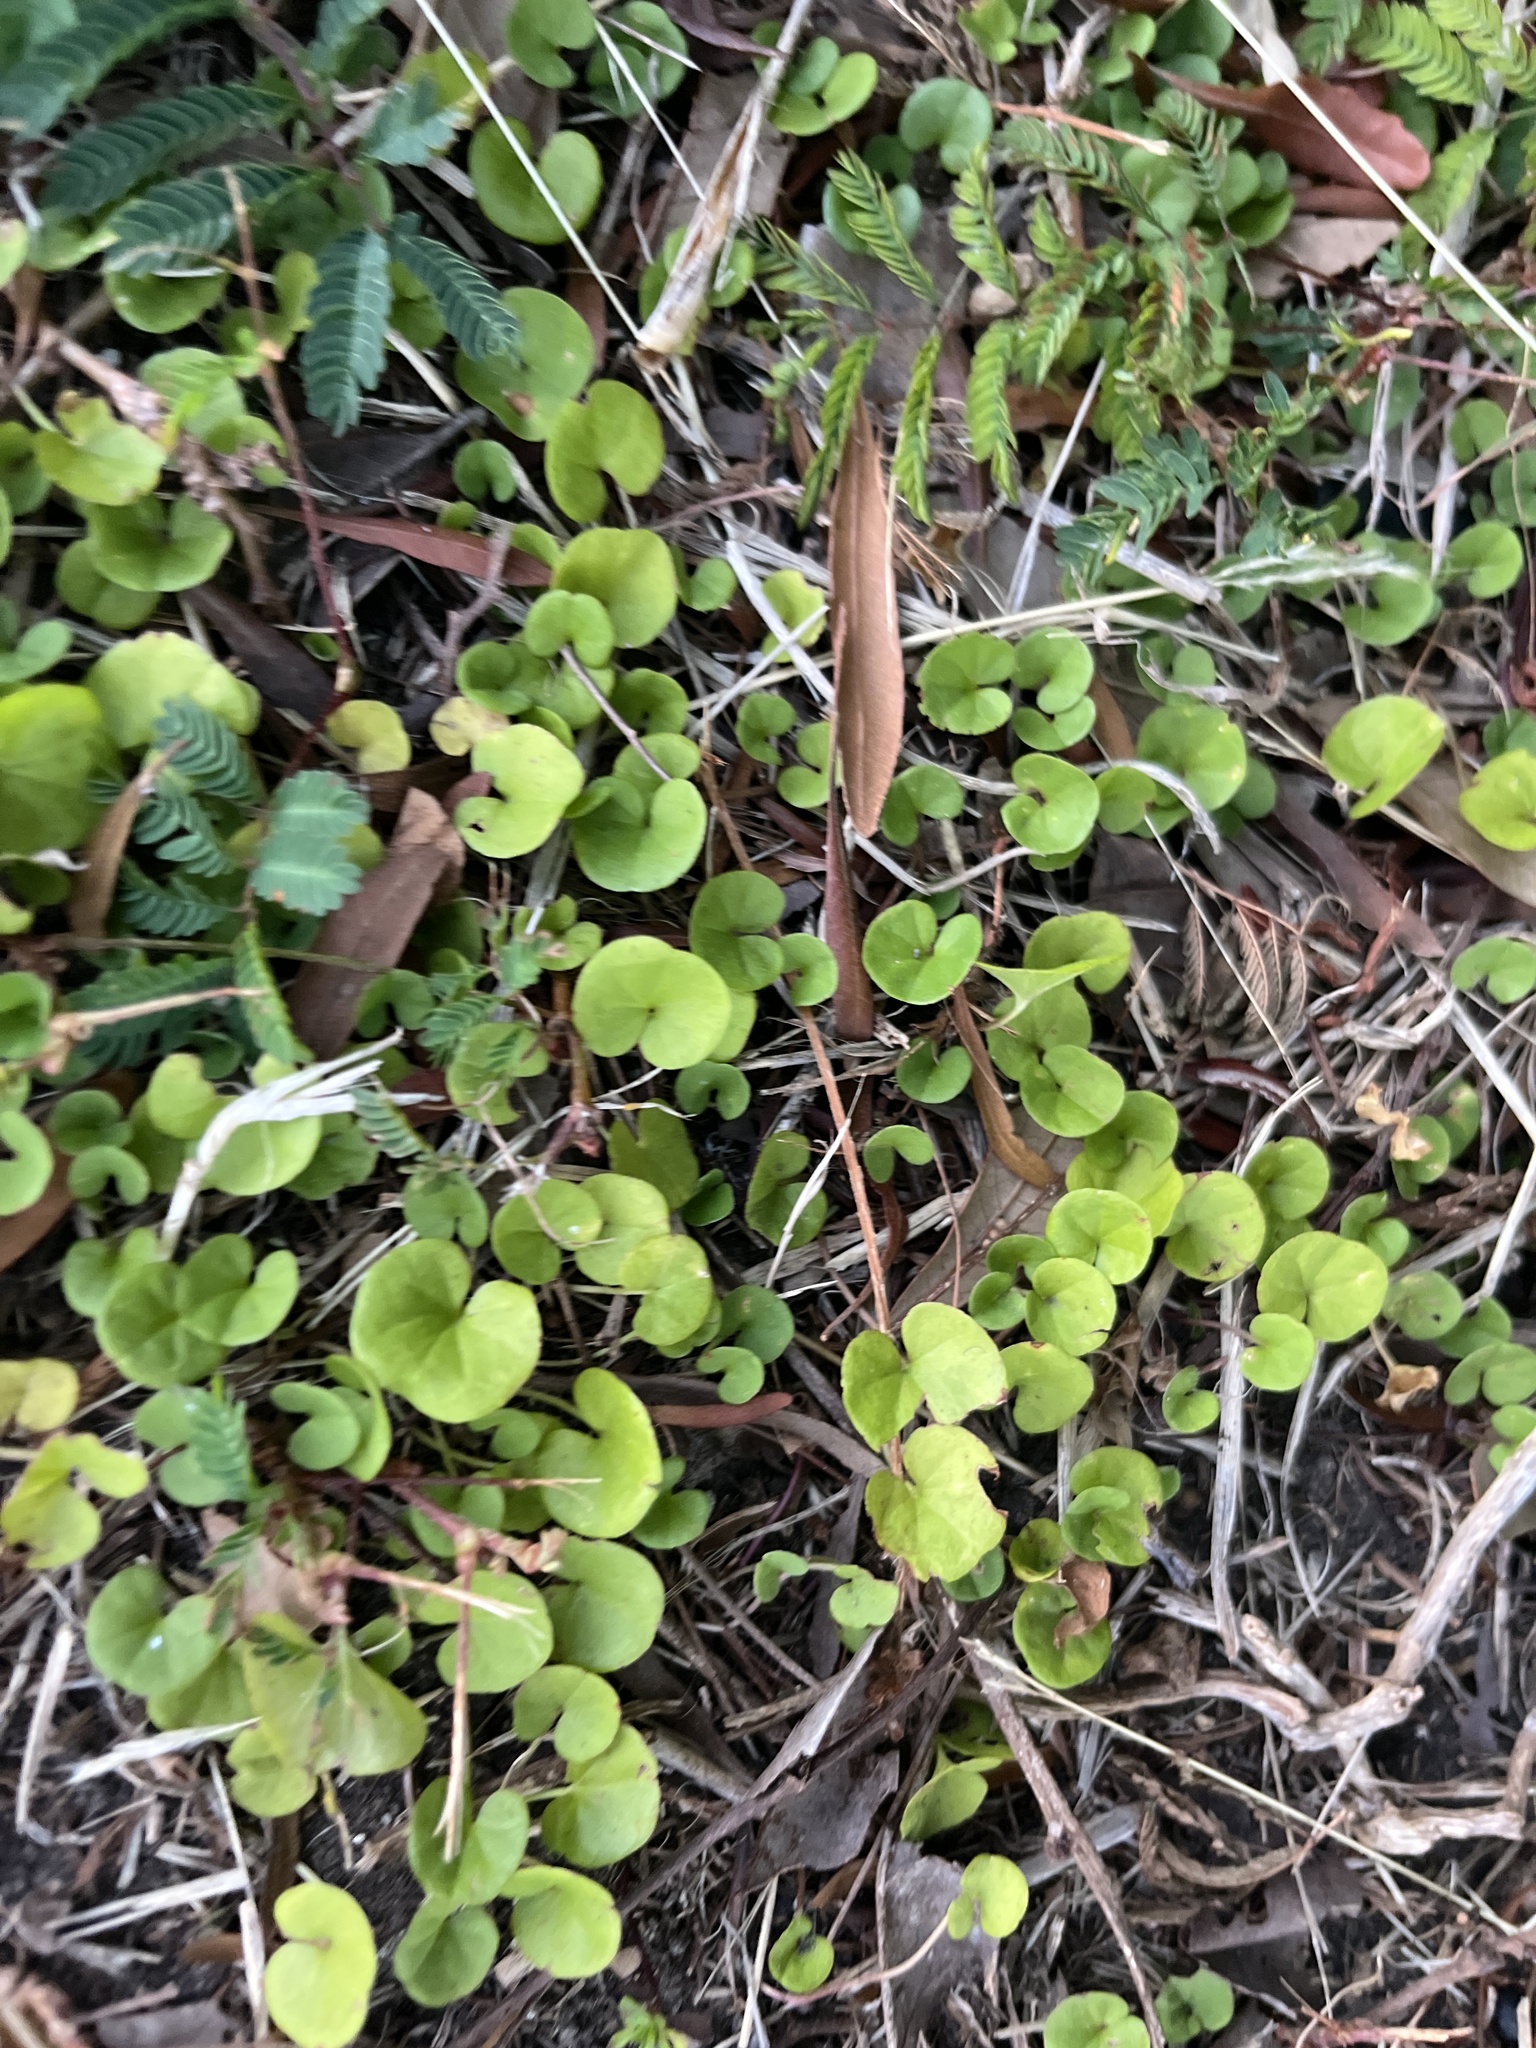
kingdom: Plantae
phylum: Tracheophyta
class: Magnoliopsida
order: Solanales
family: Convolvulaceae
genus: Dichondra
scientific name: Dichondra carolinensis
